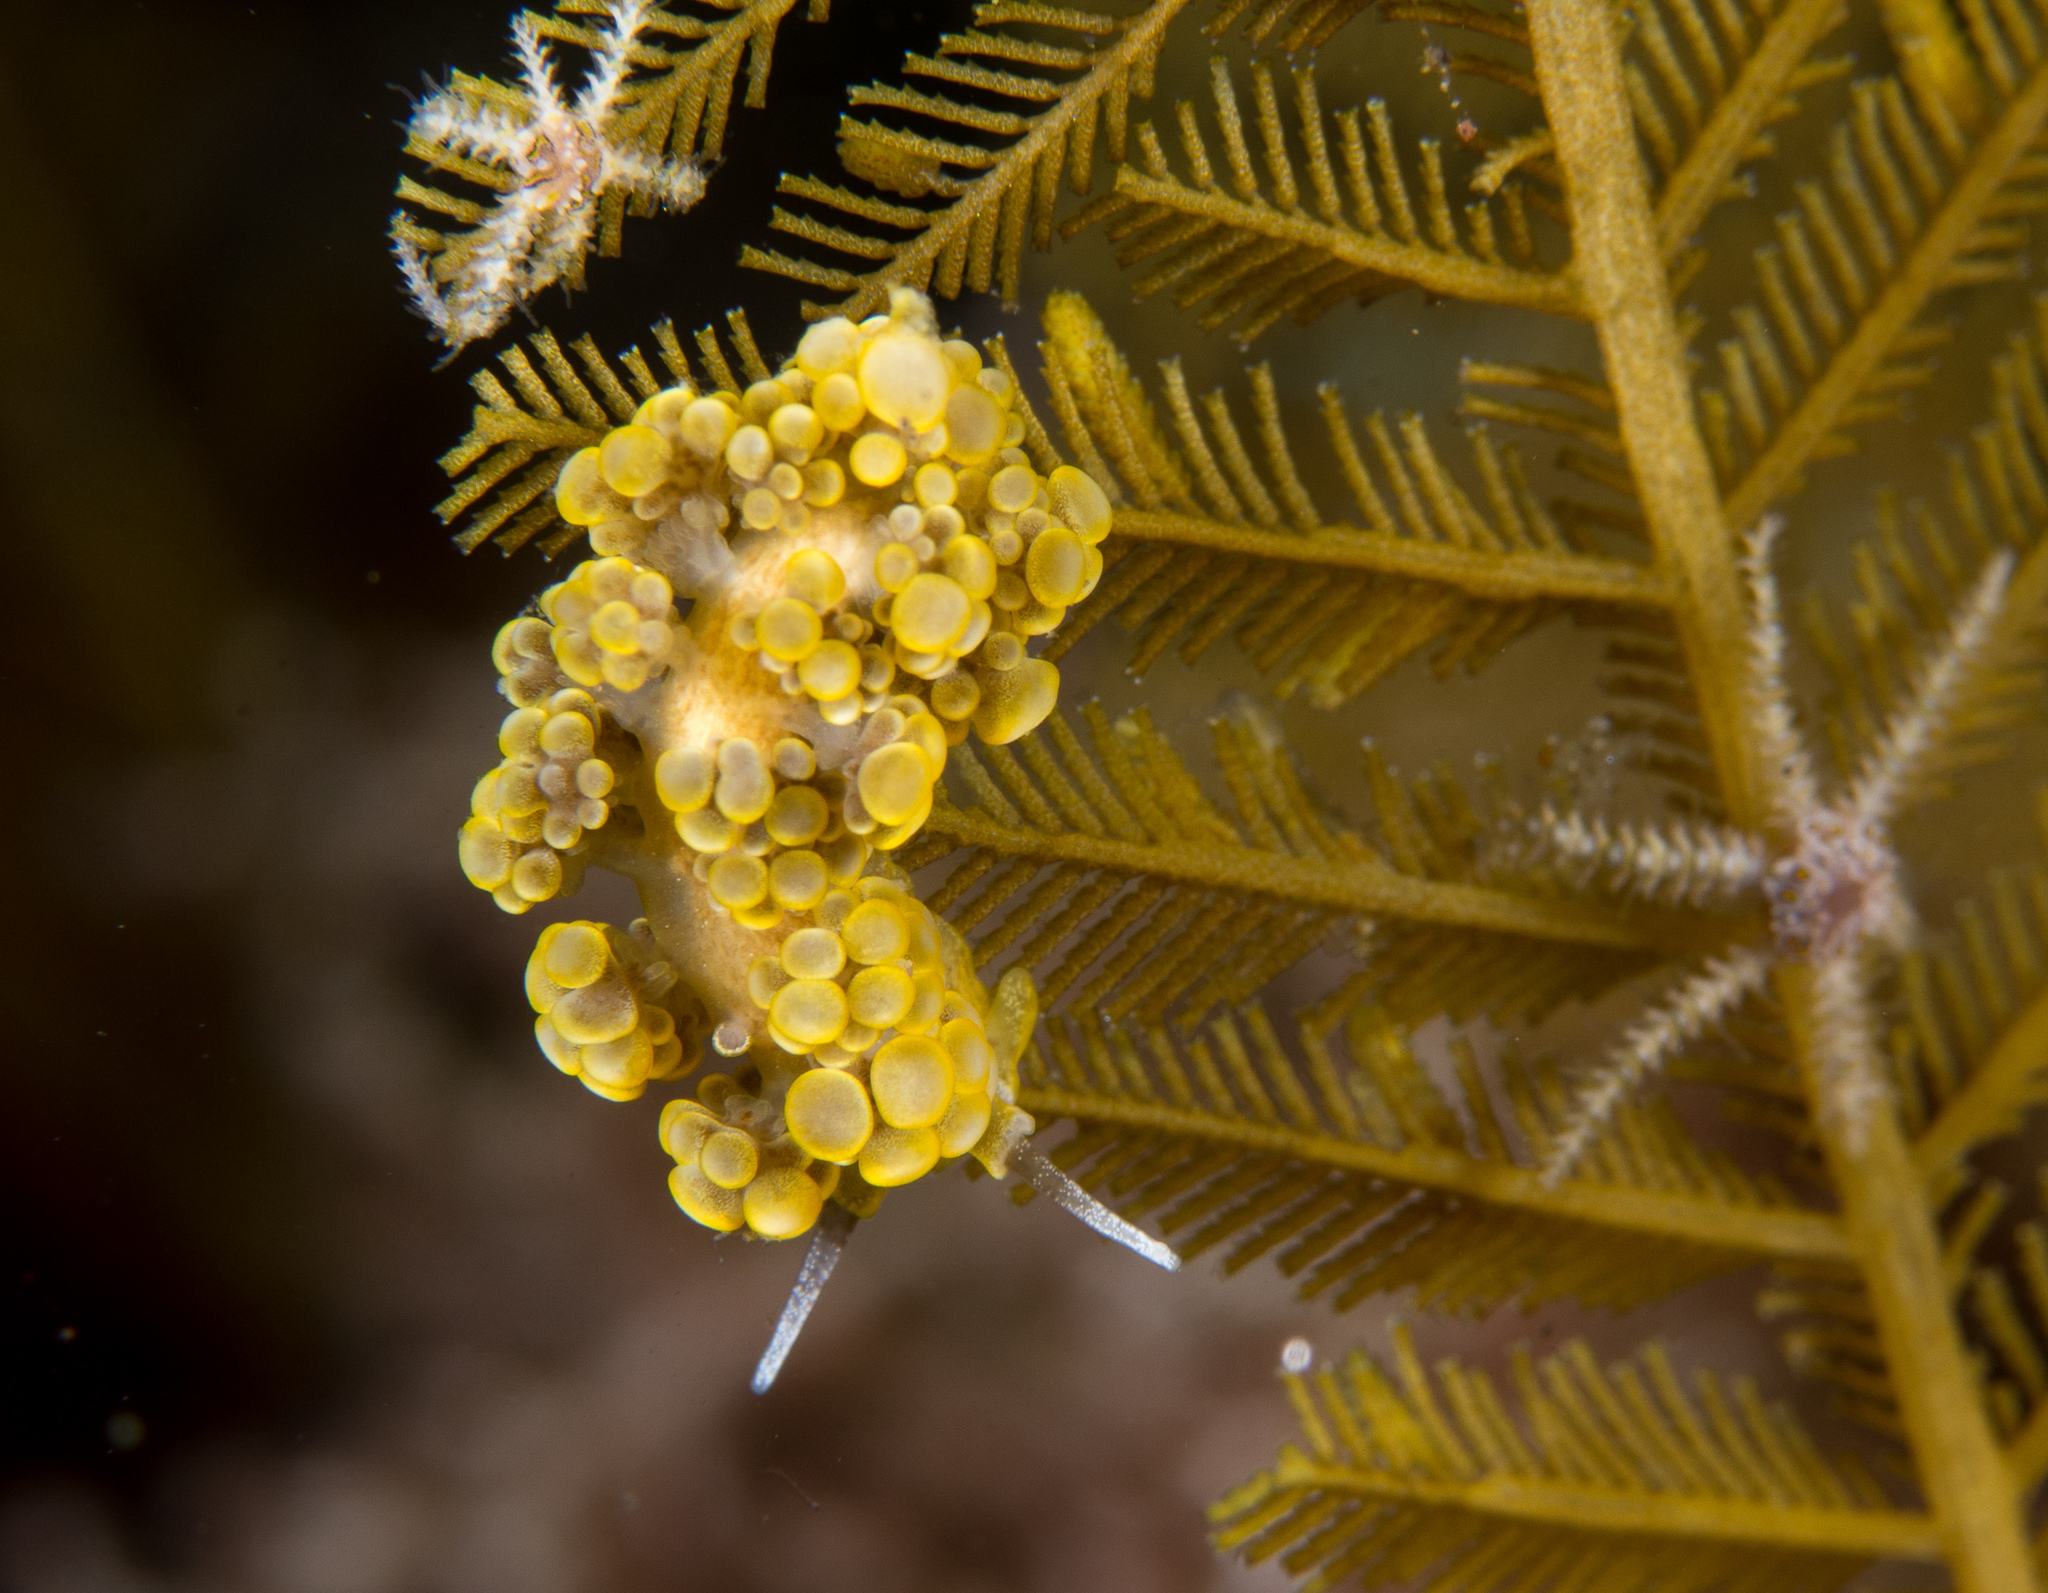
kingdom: Animalia
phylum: Mollusca
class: Gastropoda
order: Nudibranchia
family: Dotidae
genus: Doto
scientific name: Doto ussi
